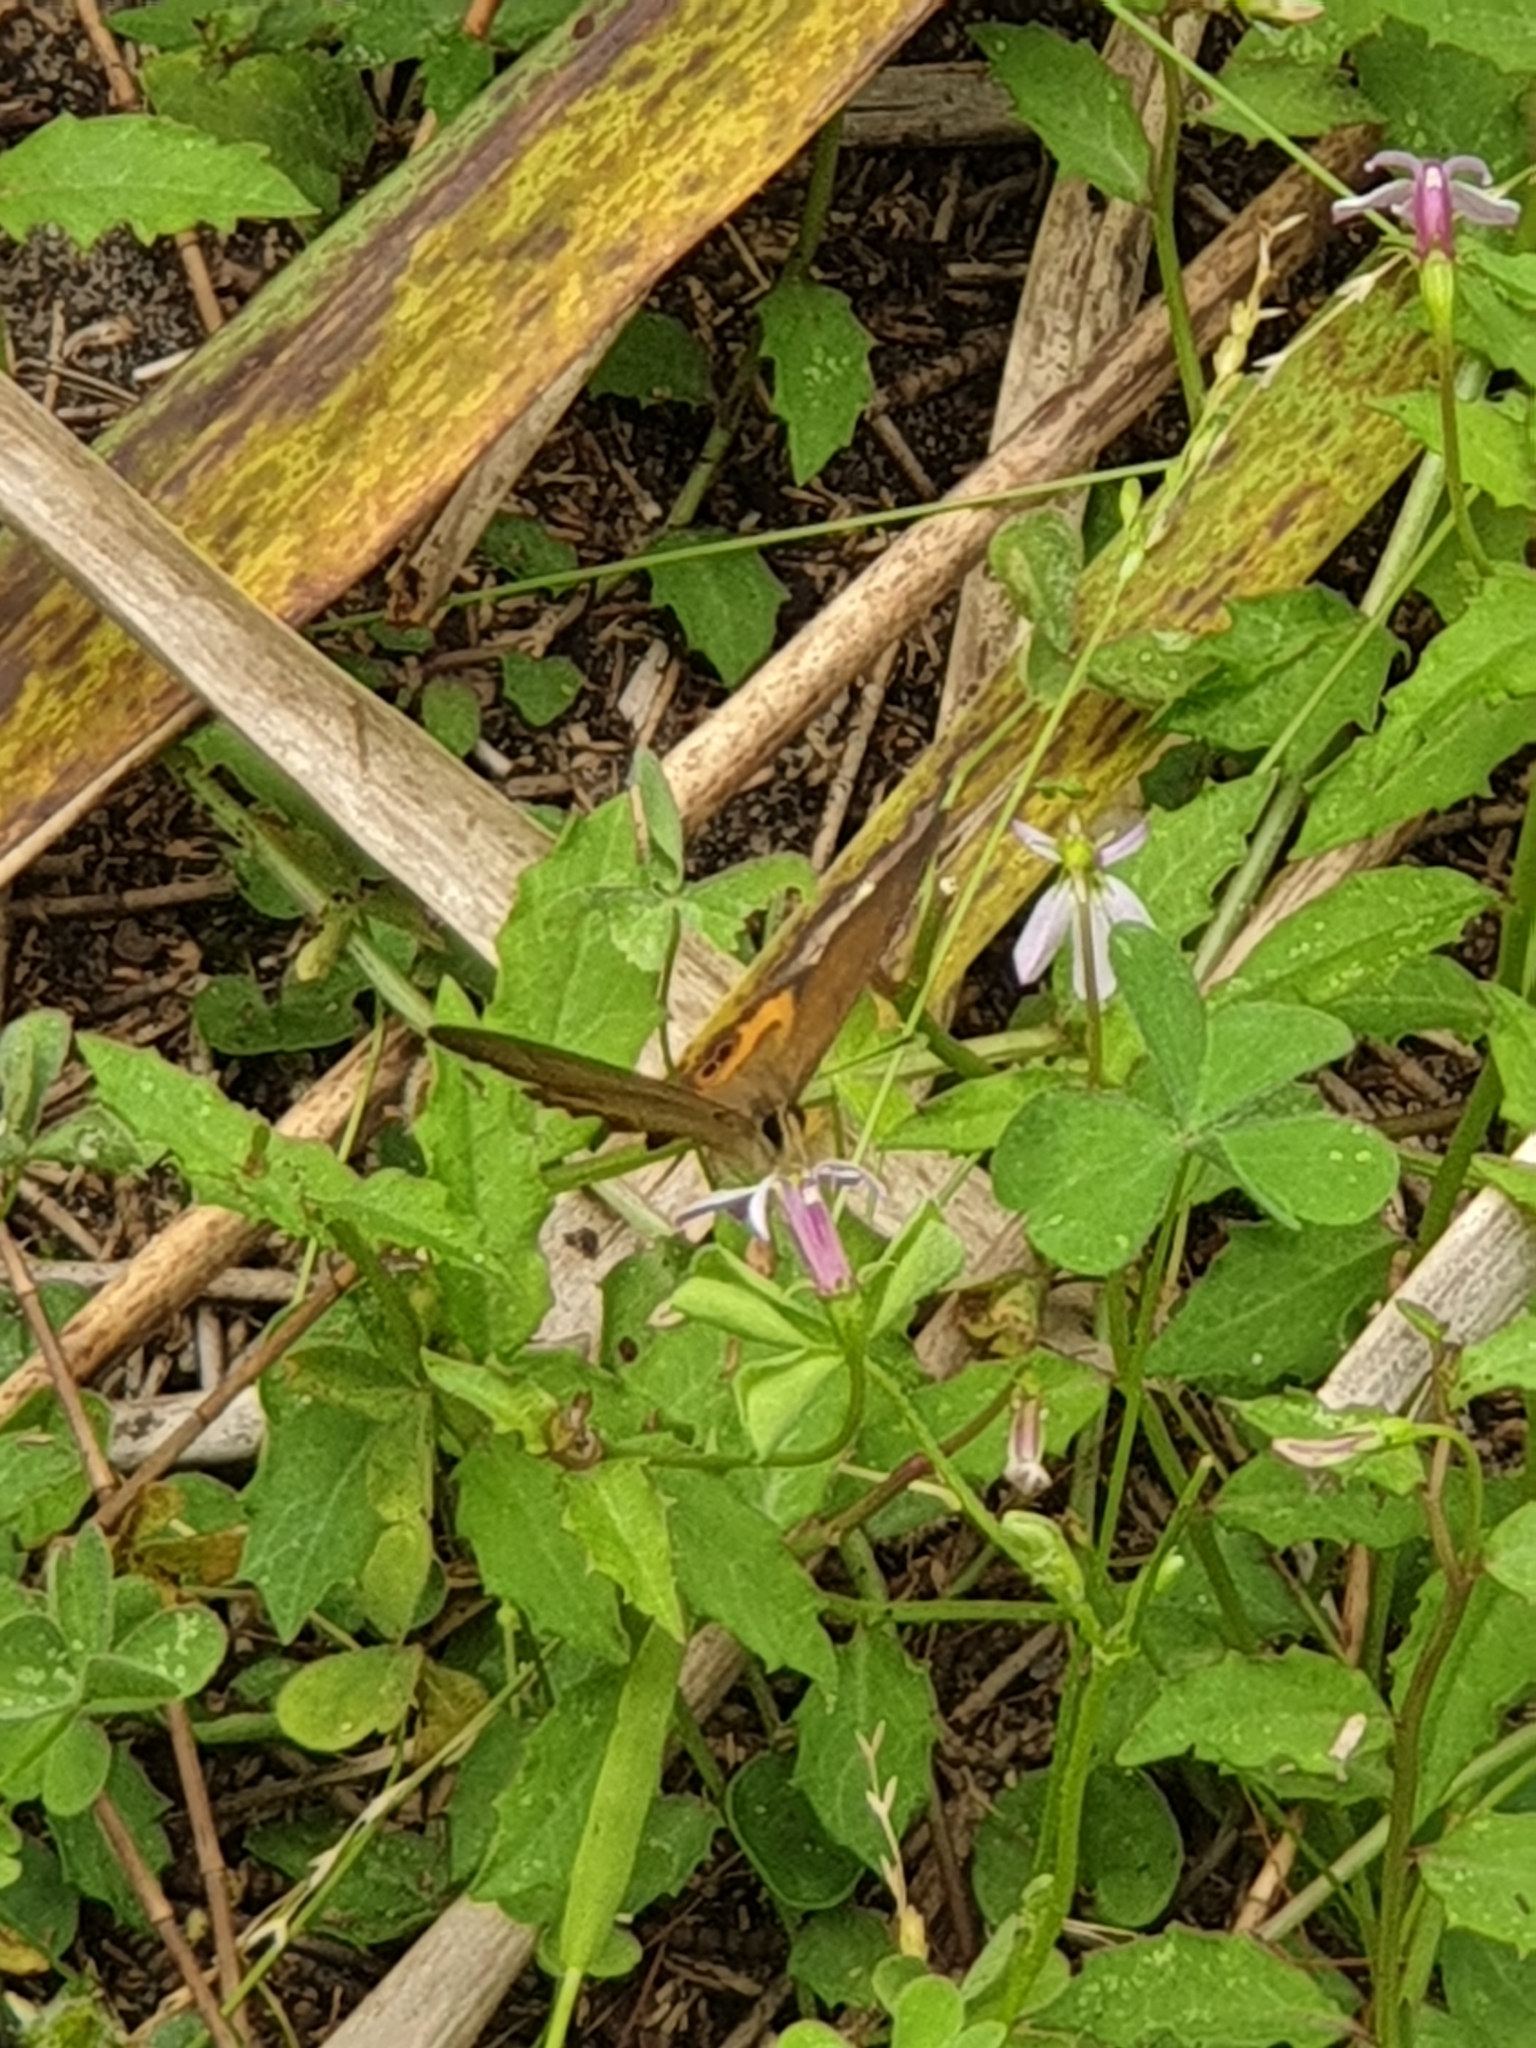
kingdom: Animalia
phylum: Arthropoda
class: Insecta
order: Lepidoptera
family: Nymphalidae
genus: Hypocysta
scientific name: Hypocysta metirius
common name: Brown ringlet
